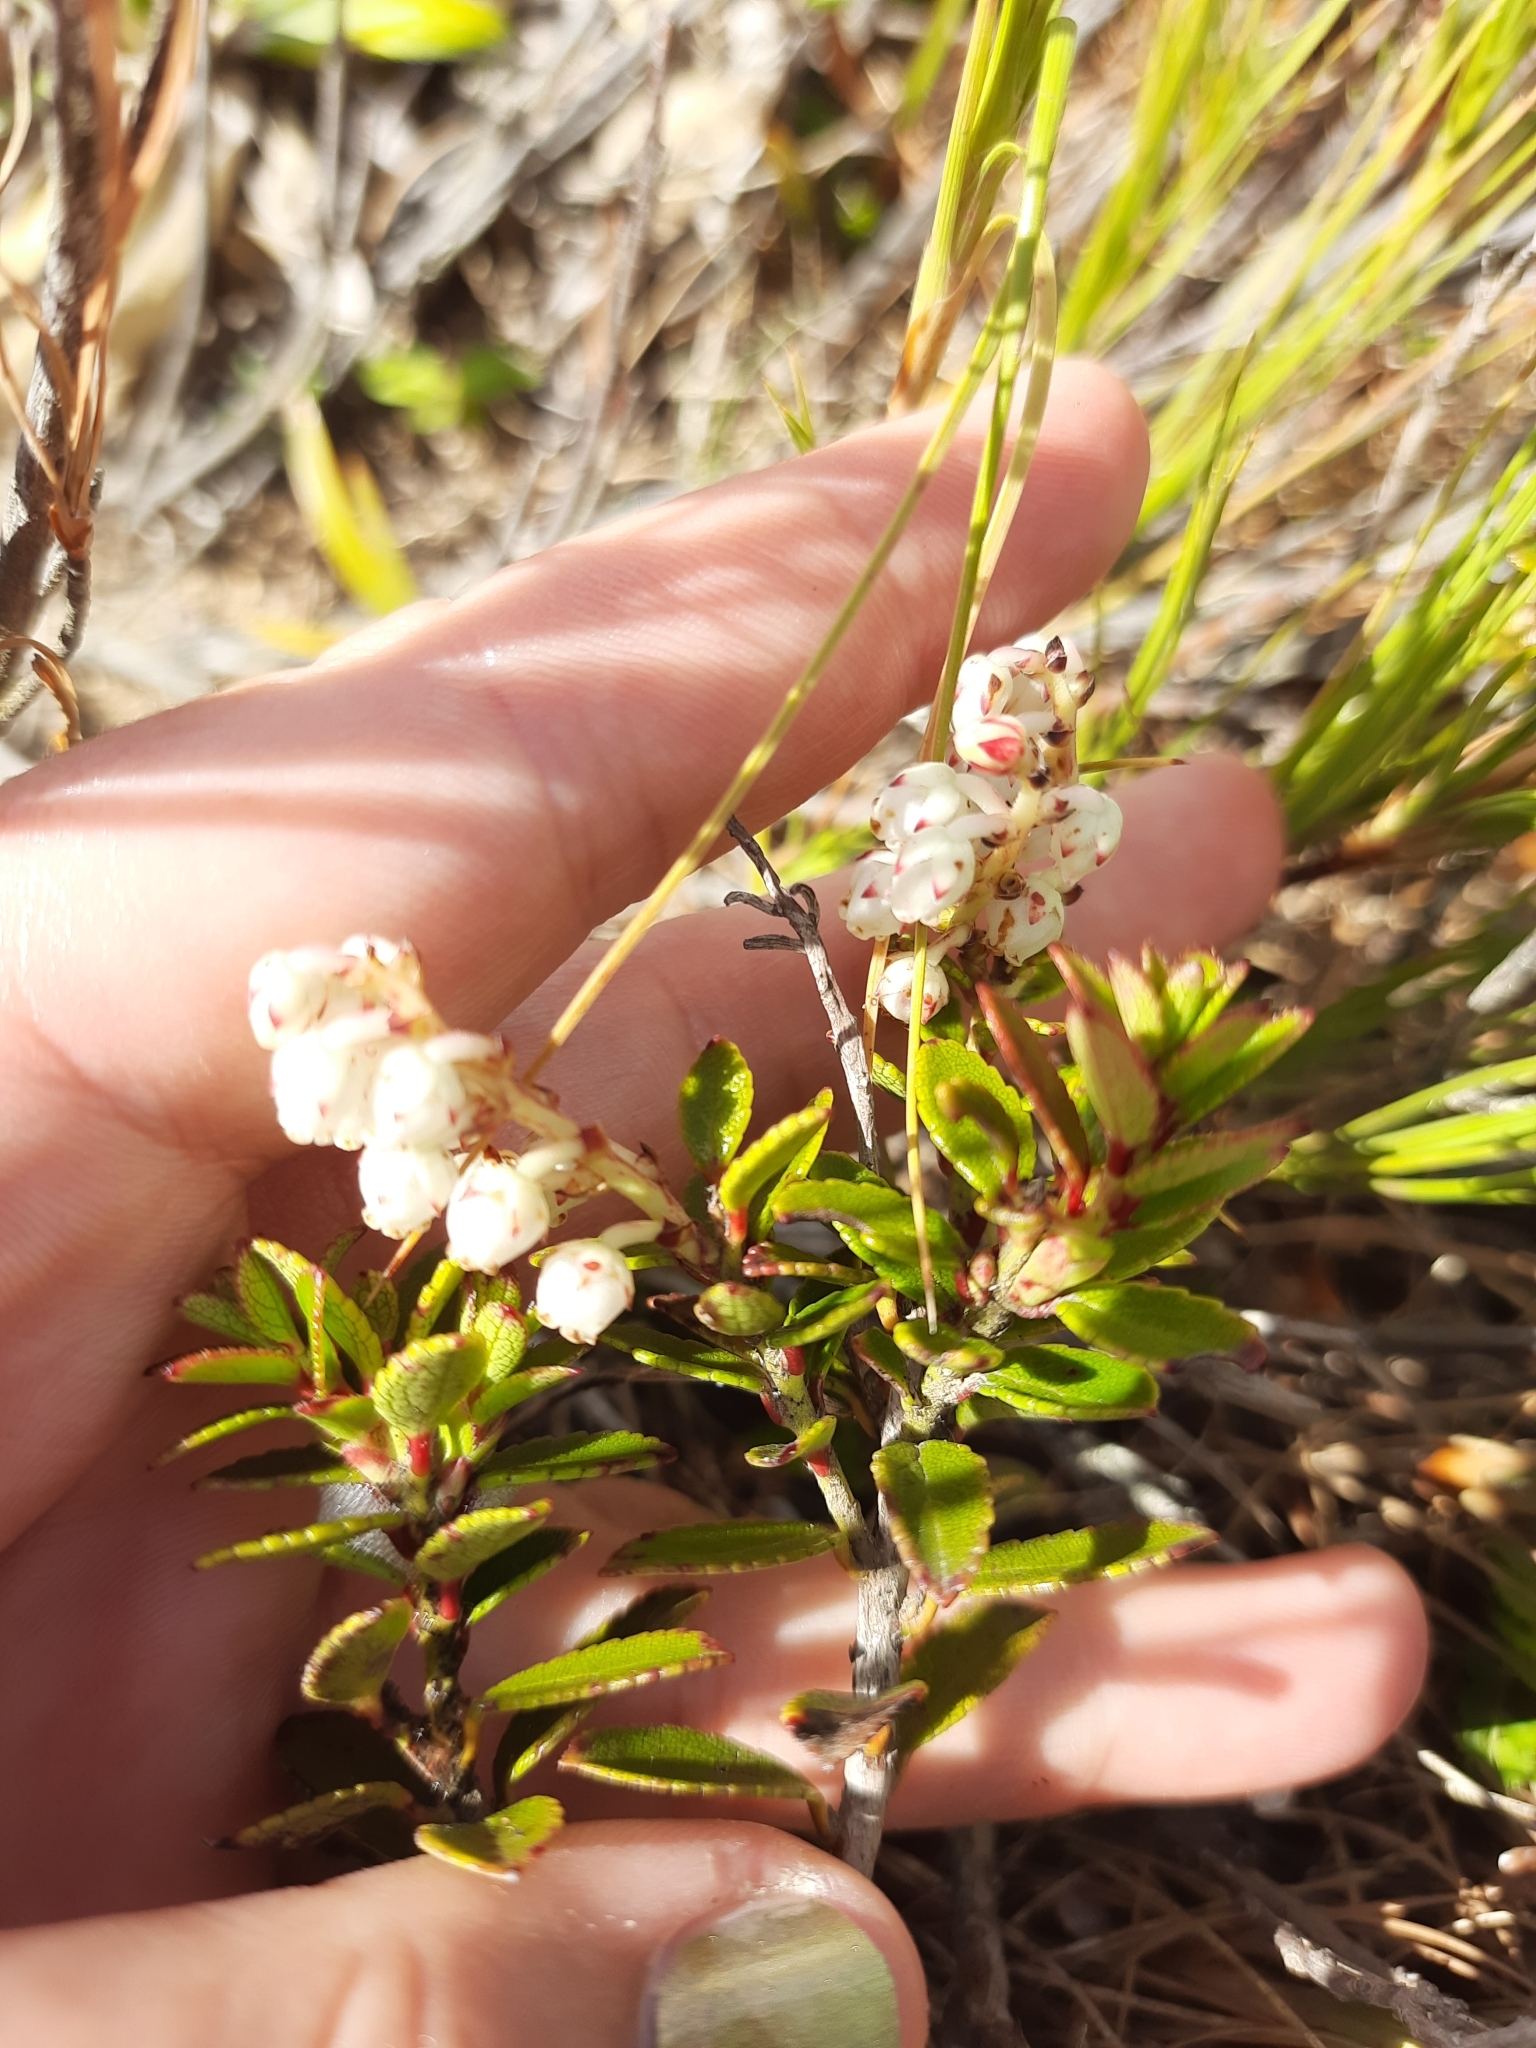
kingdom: Plantae
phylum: Tracheophyta
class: Magnoliopsida
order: Ericales
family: Ericaceae
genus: Gaultheria
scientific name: Gaultheria crassa
